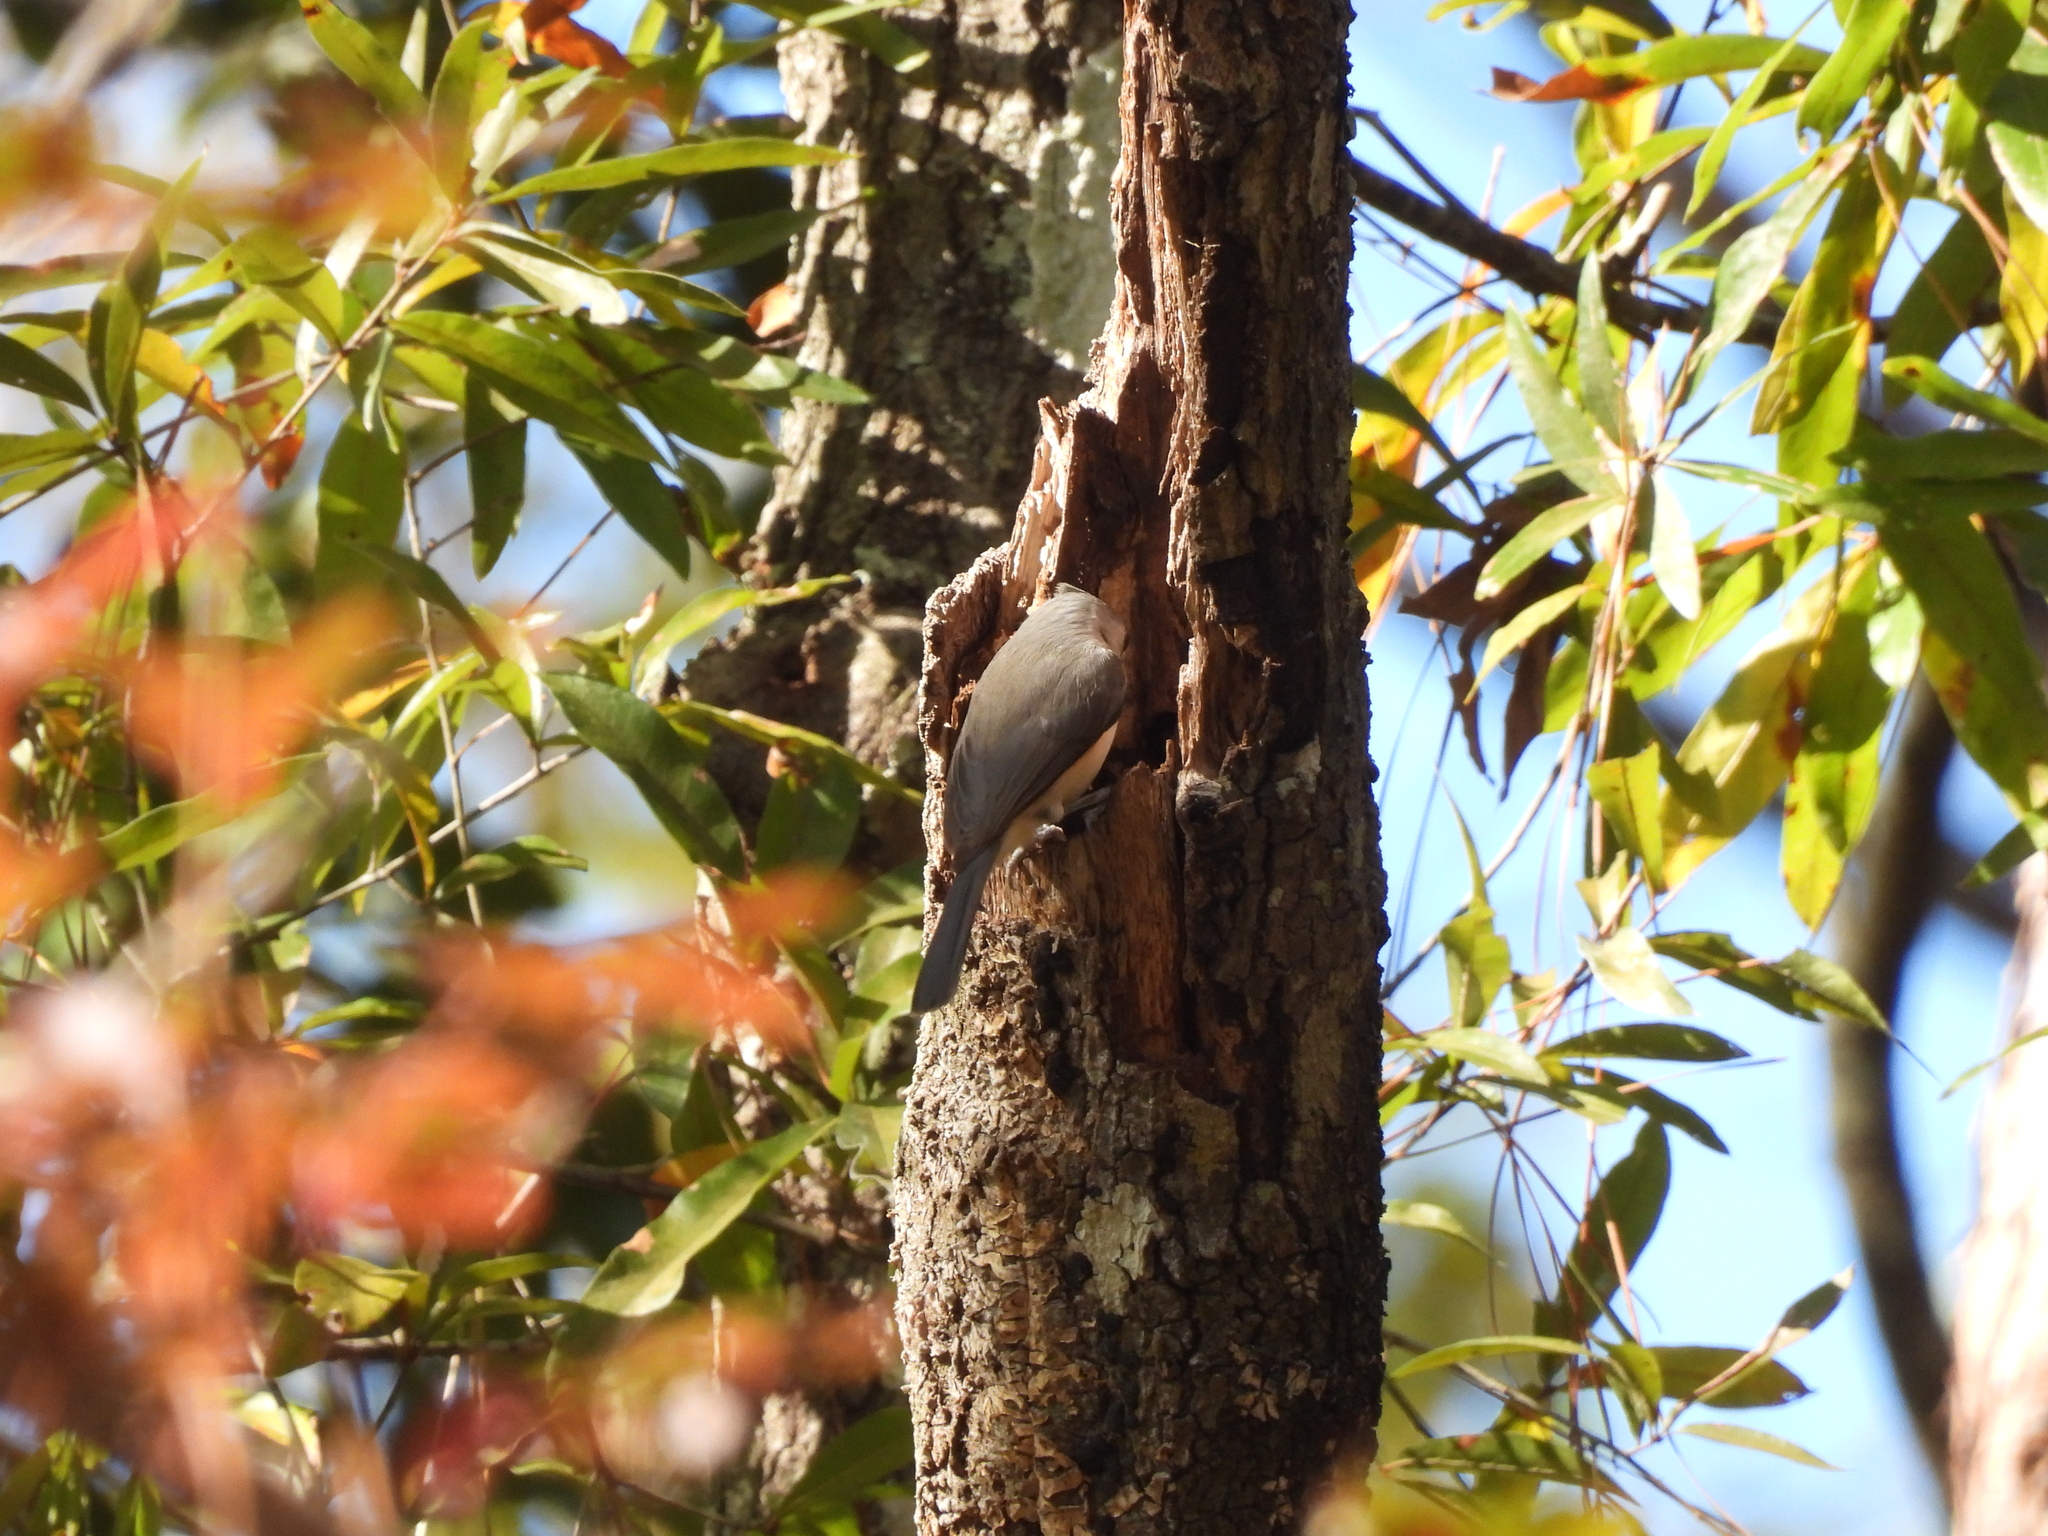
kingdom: Animalia
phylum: Chordata
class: Aves
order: Passeriformes
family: Paridae
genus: Baeolophus
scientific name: Baeolophus bicolor
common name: Tufted titmouse
